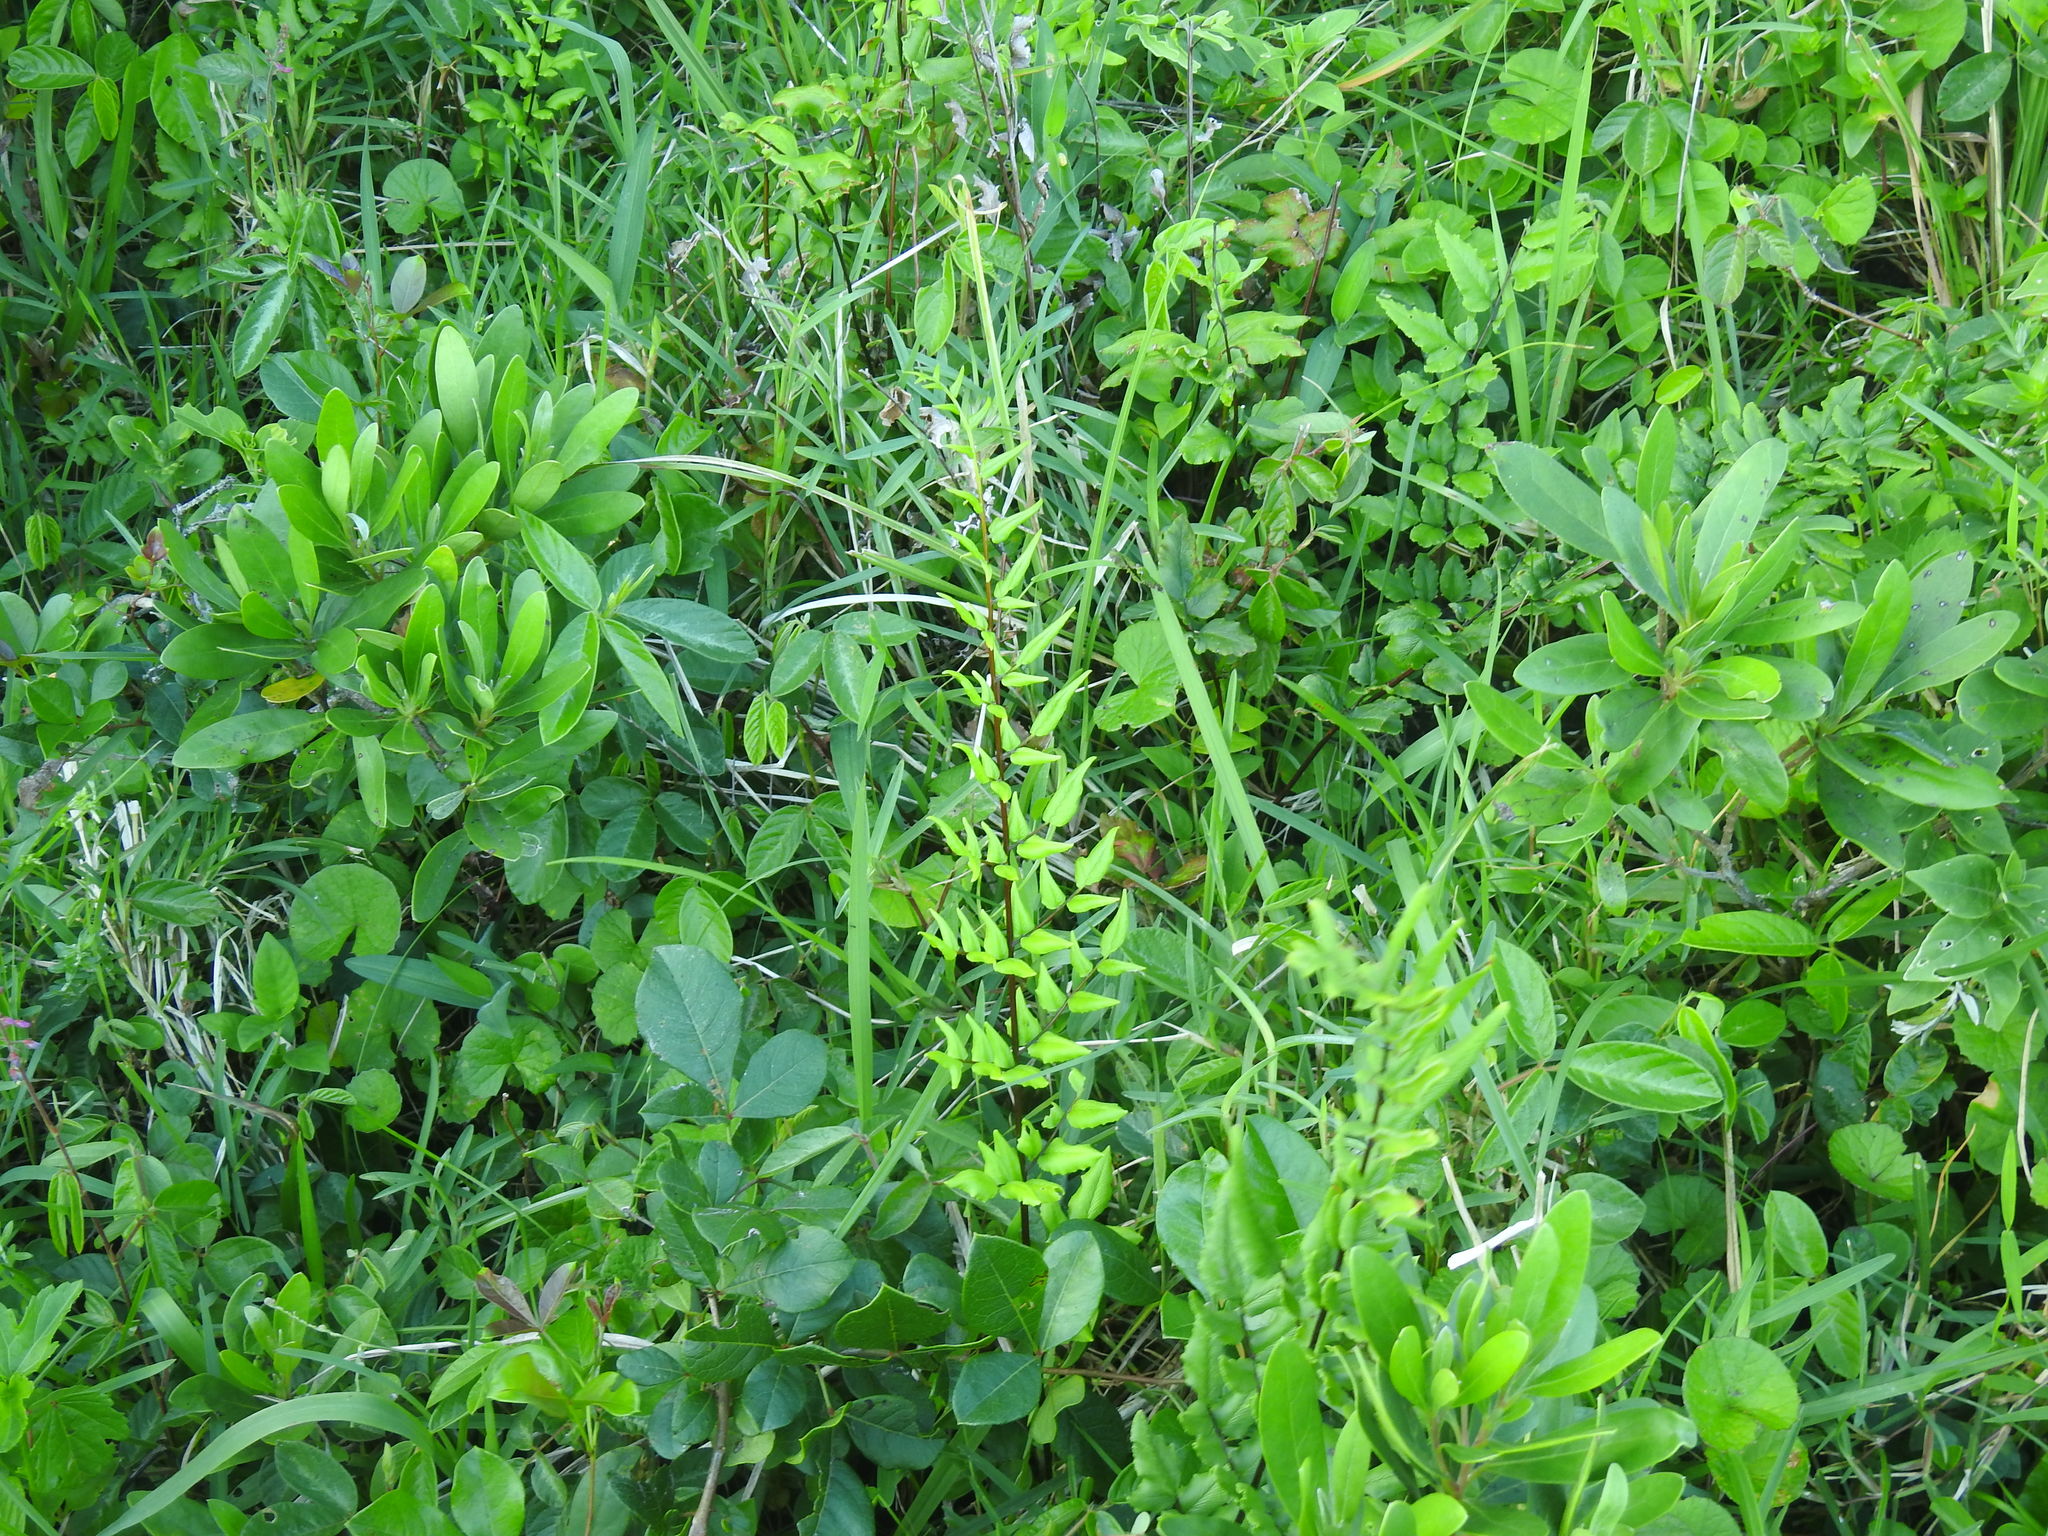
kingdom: Plantae
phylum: Tracheophyta
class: Polypodiopsida
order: Polypodiales
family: Pteridaceae
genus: Cheilanthes
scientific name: Cheilanthes viridis
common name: Green cliffbrake
